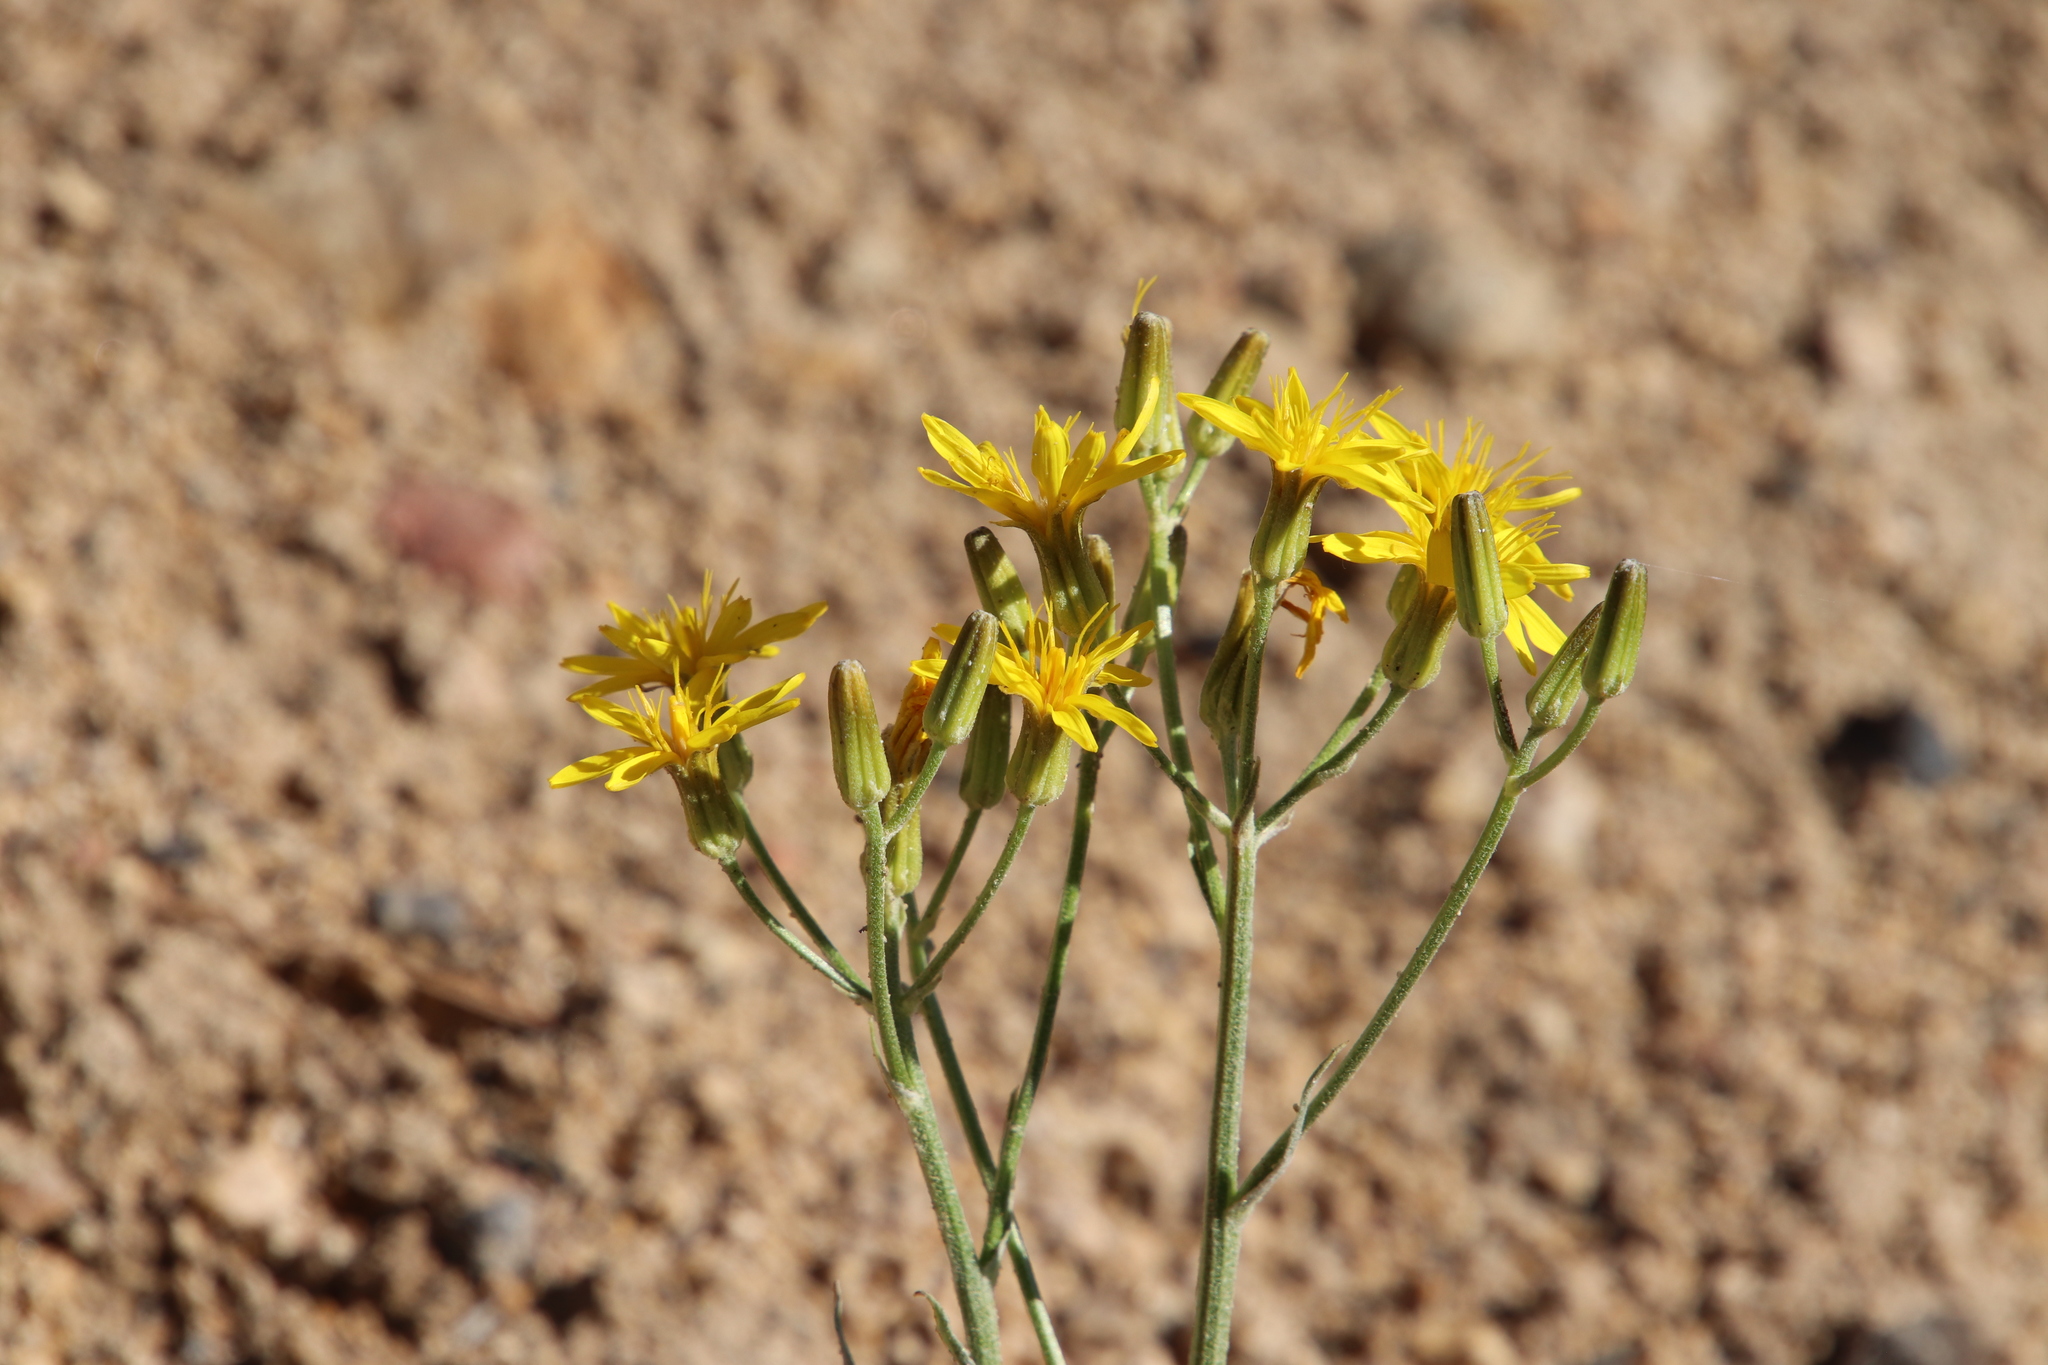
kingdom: Plantae
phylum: Tracheophyta
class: Magnoliopsida
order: Asterales
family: Asteraceae
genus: Crepis
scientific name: Crepis acuminata
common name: Longleaf hawk's-beard
